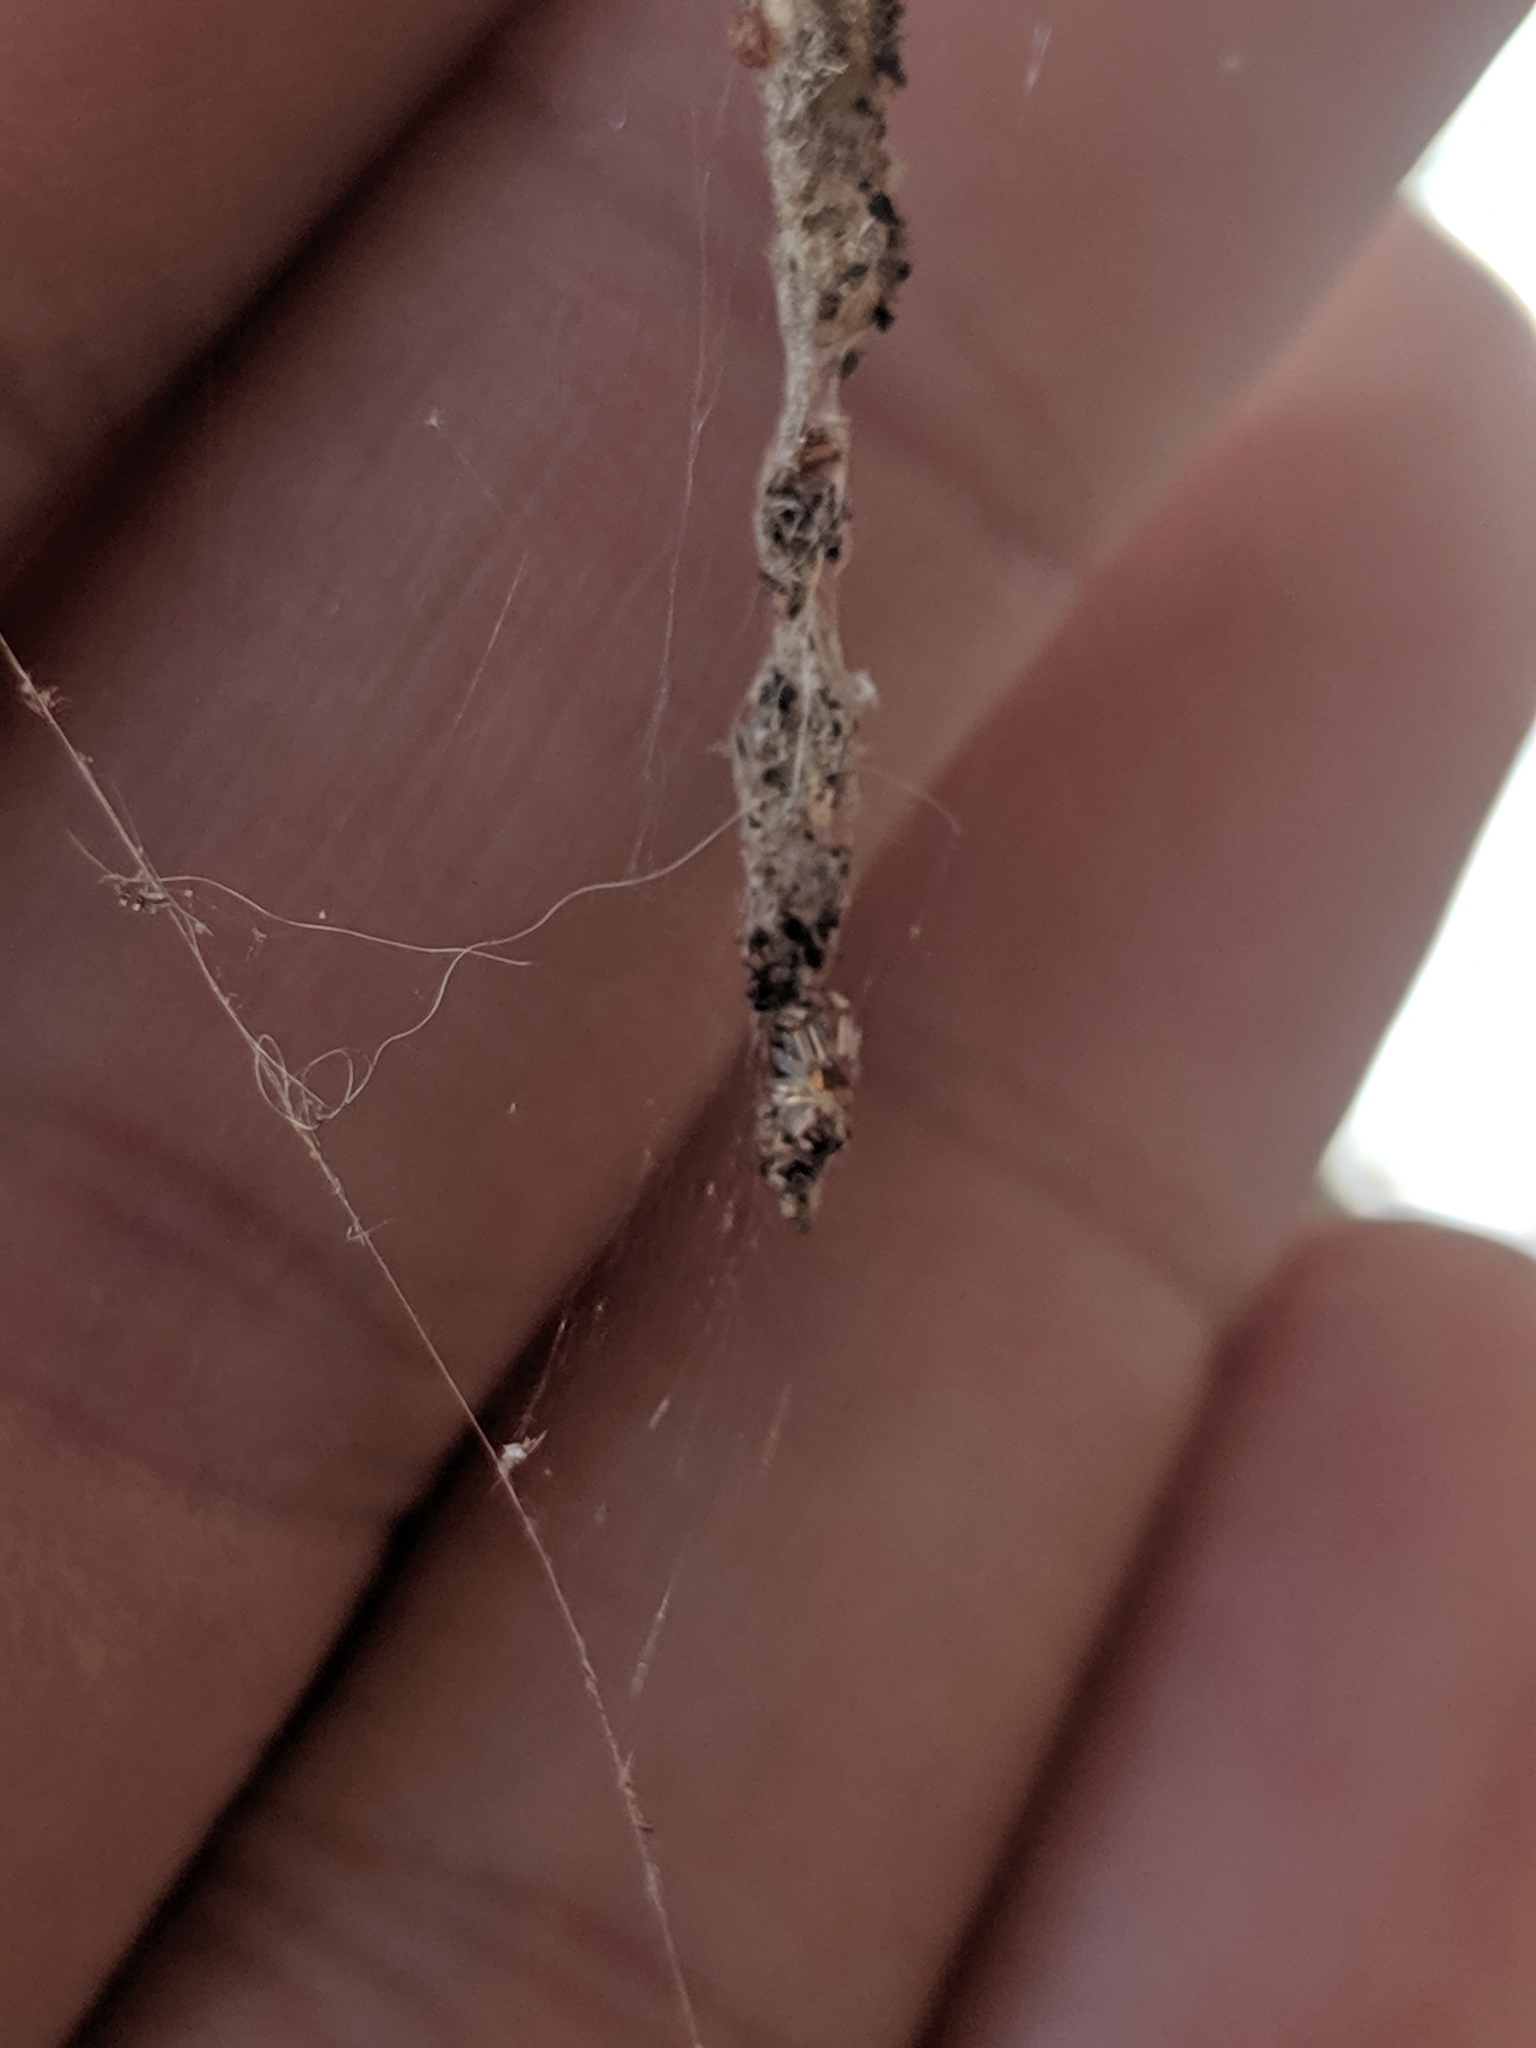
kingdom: Animalia
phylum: Arthropoda
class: Arachnida
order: Araneae
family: Araneidae
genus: Cyclosa
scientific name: Cyclosa turbinata
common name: Orb weavers
